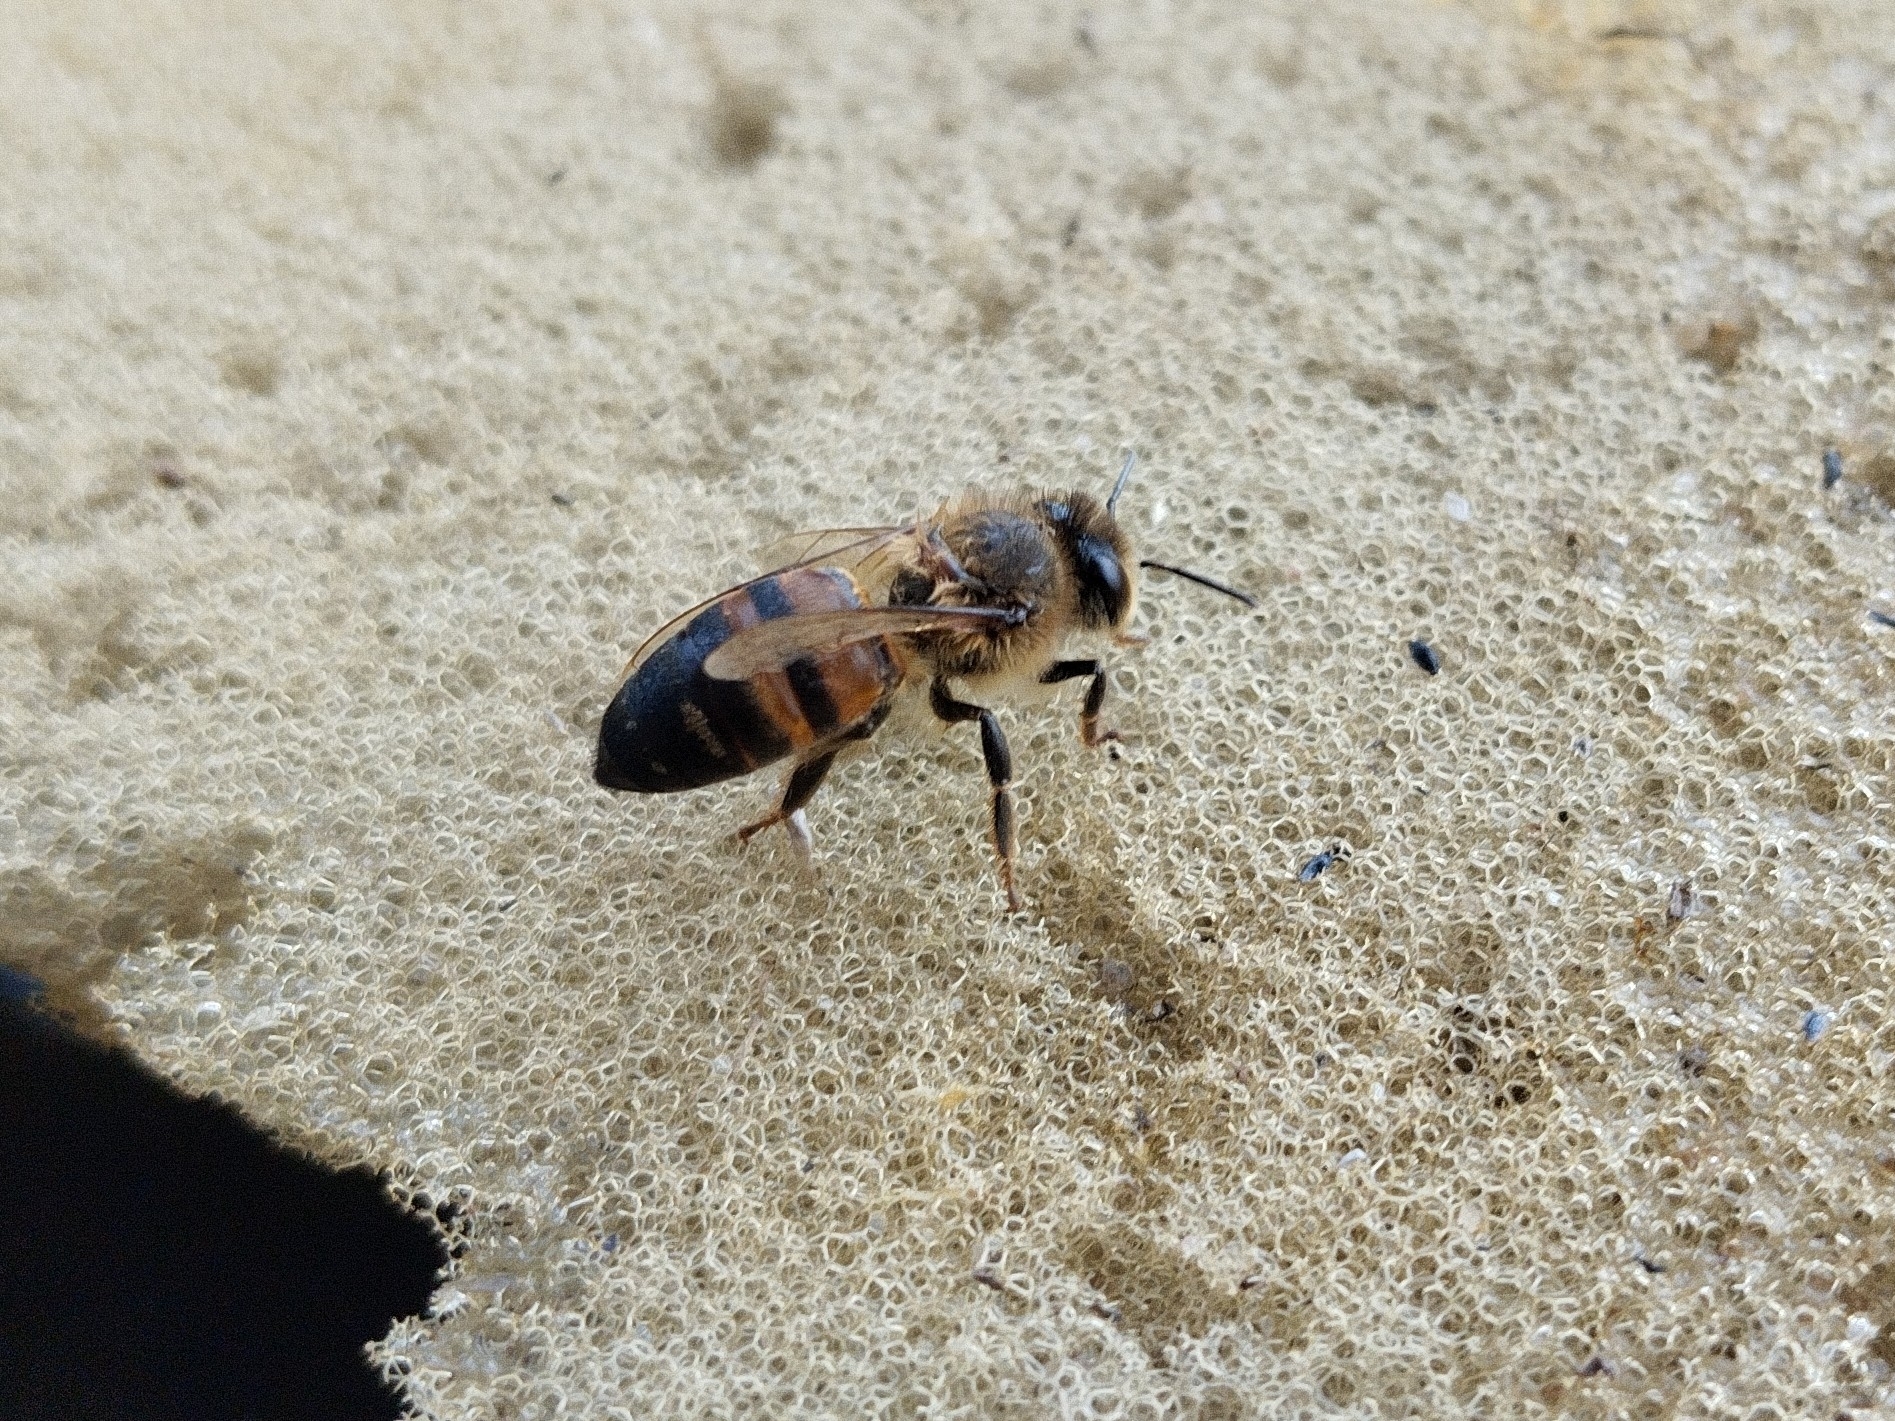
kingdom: Animalia
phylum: Arthropoda
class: Insecta
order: Hymenoptera
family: Apidae
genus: Apis
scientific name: Apis mellifera
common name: Honey bee
